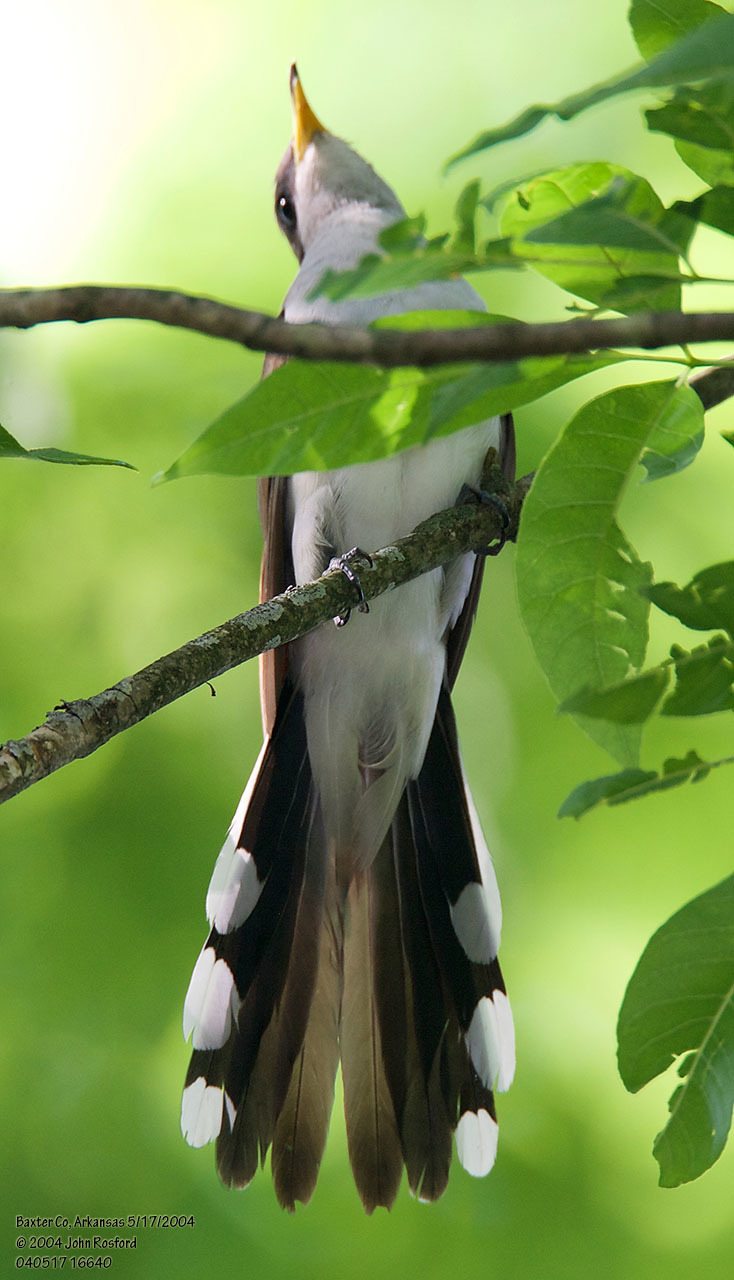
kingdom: Animalia
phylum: Chordata
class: Aves
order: Cuculiformes
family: Cuculidae
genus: Coccyzus
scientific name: Coccyzus americanus
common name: Yellow-billed cuckoo
